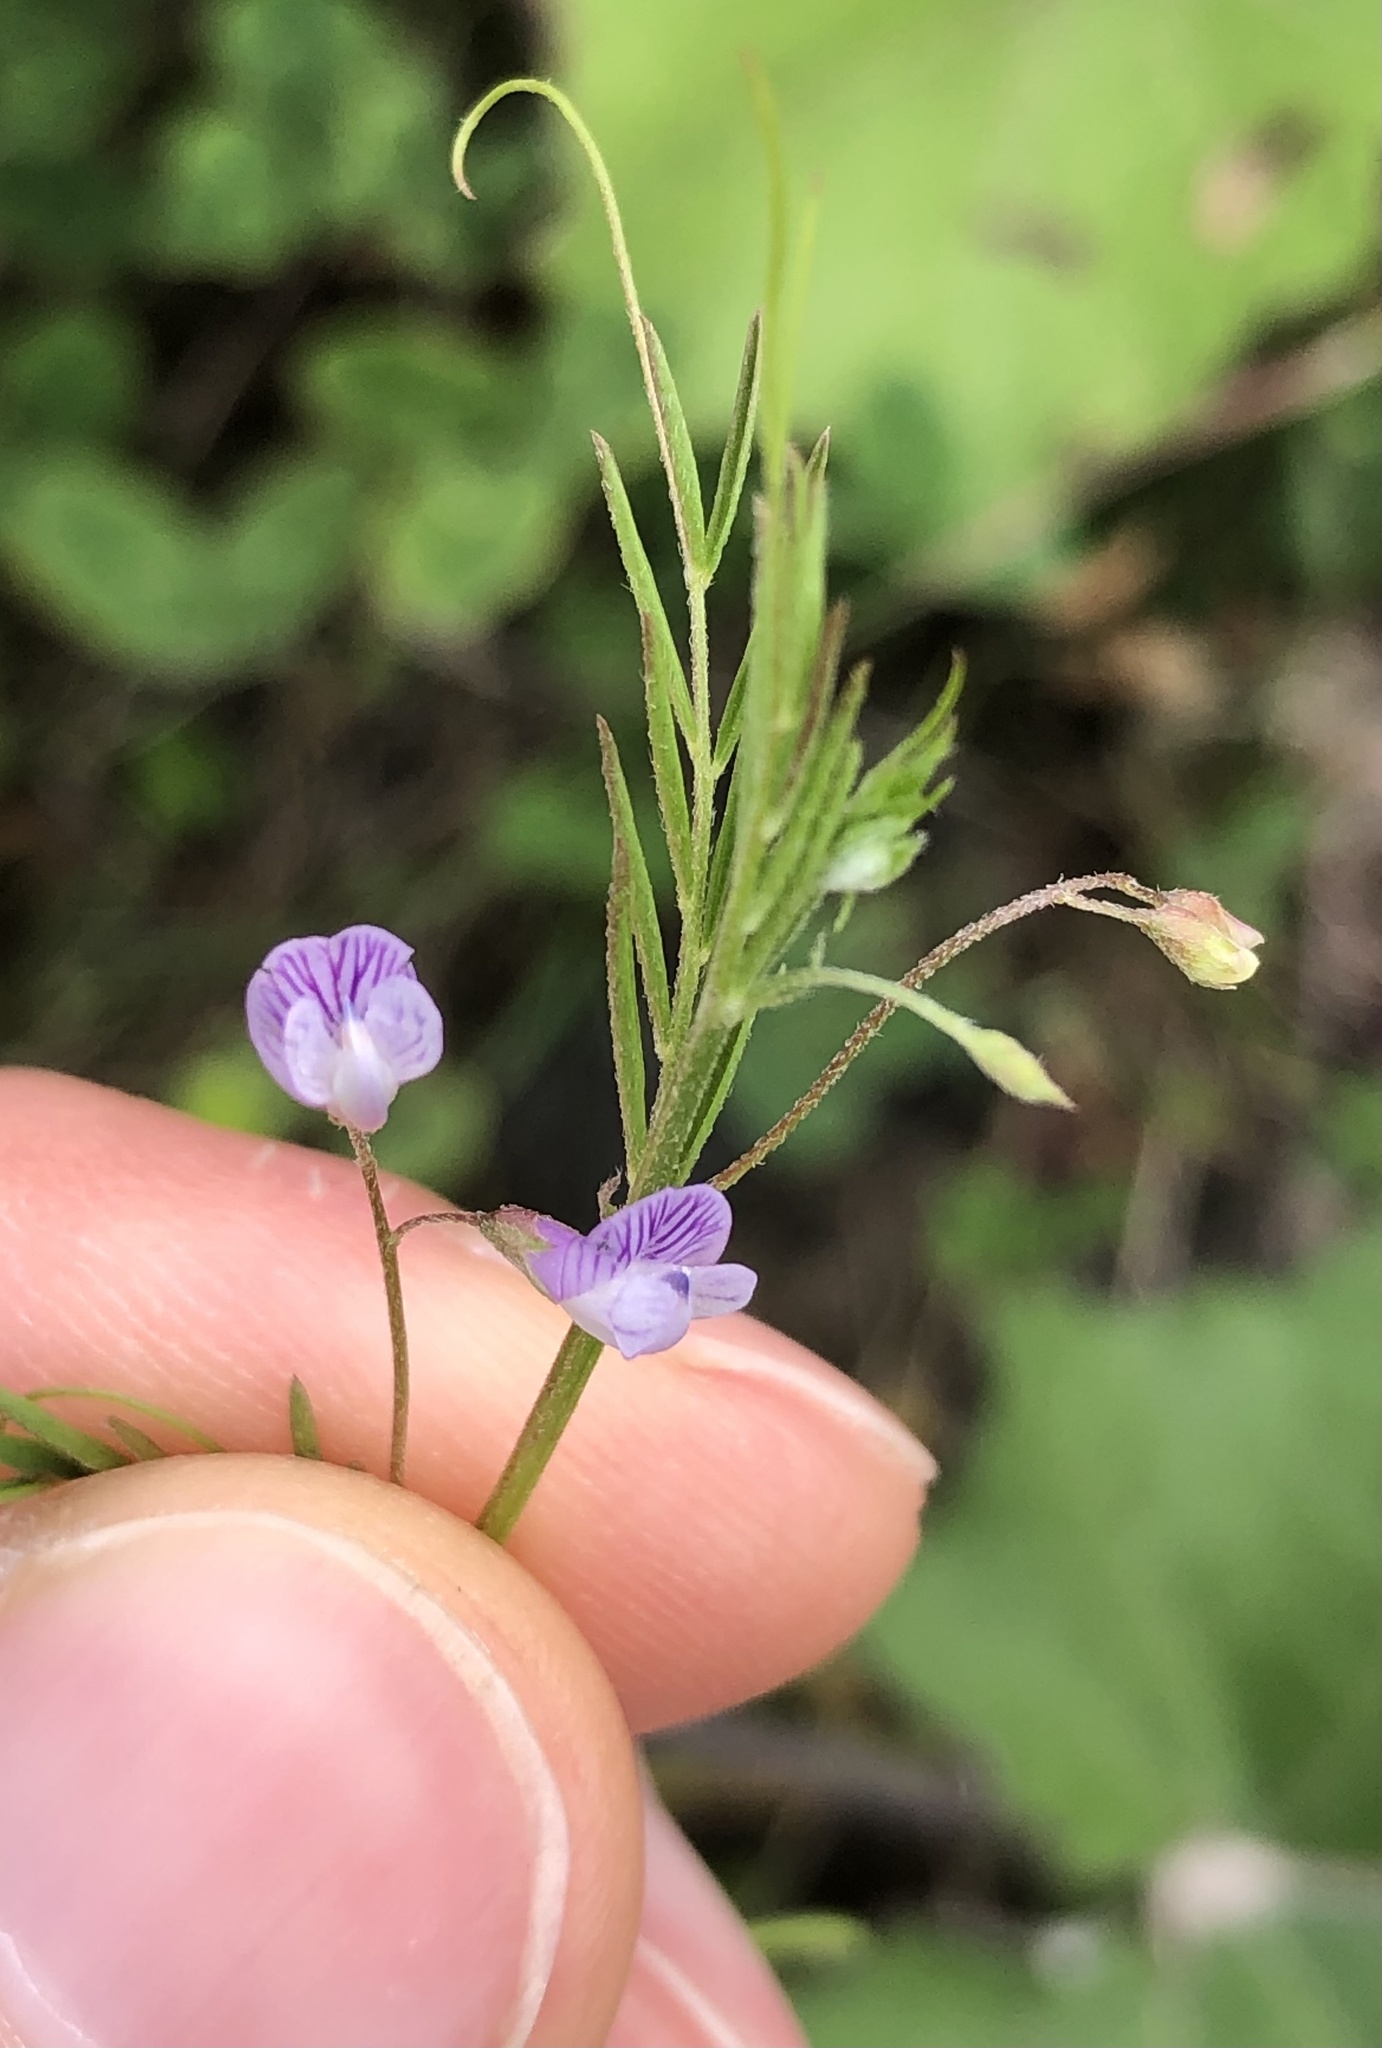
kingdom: Plantae
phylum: Tracheophyta
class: Magnoliopsida
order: Fabales
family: Fabaceae
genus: Vicia
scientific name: Vicia tetrasperma
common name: Smooth tare
